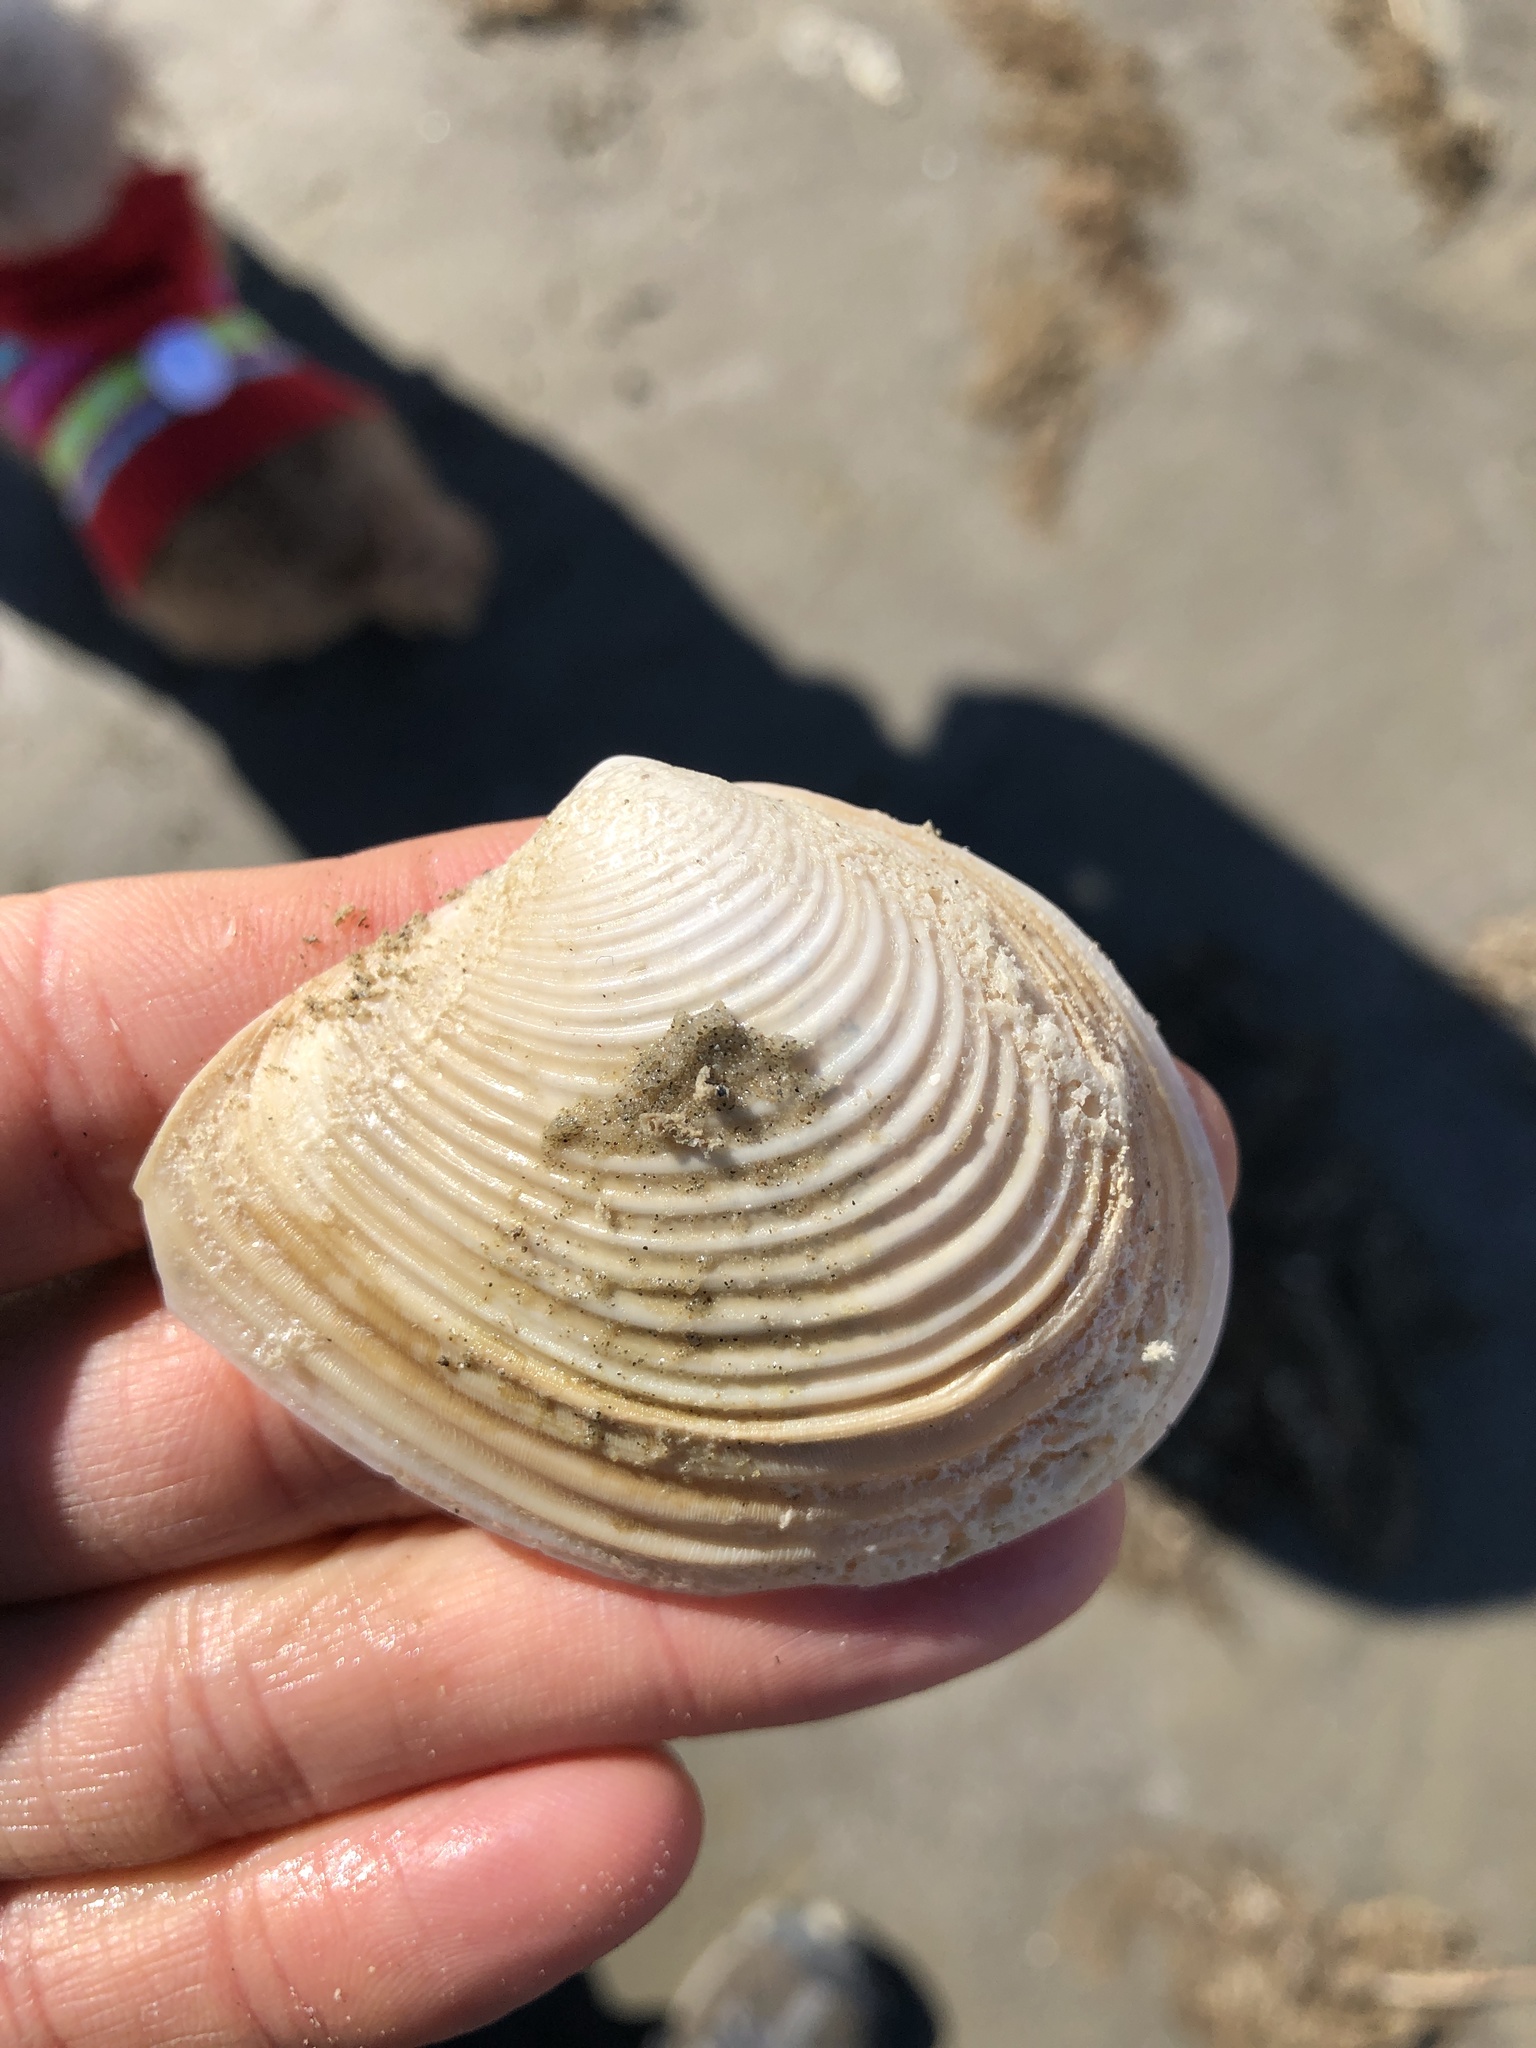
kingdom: Animalia
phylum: Mollusca
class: Bivalvia
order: Venerida
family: Anatinellidae
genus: Raeta
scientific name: Raeta plicatella
